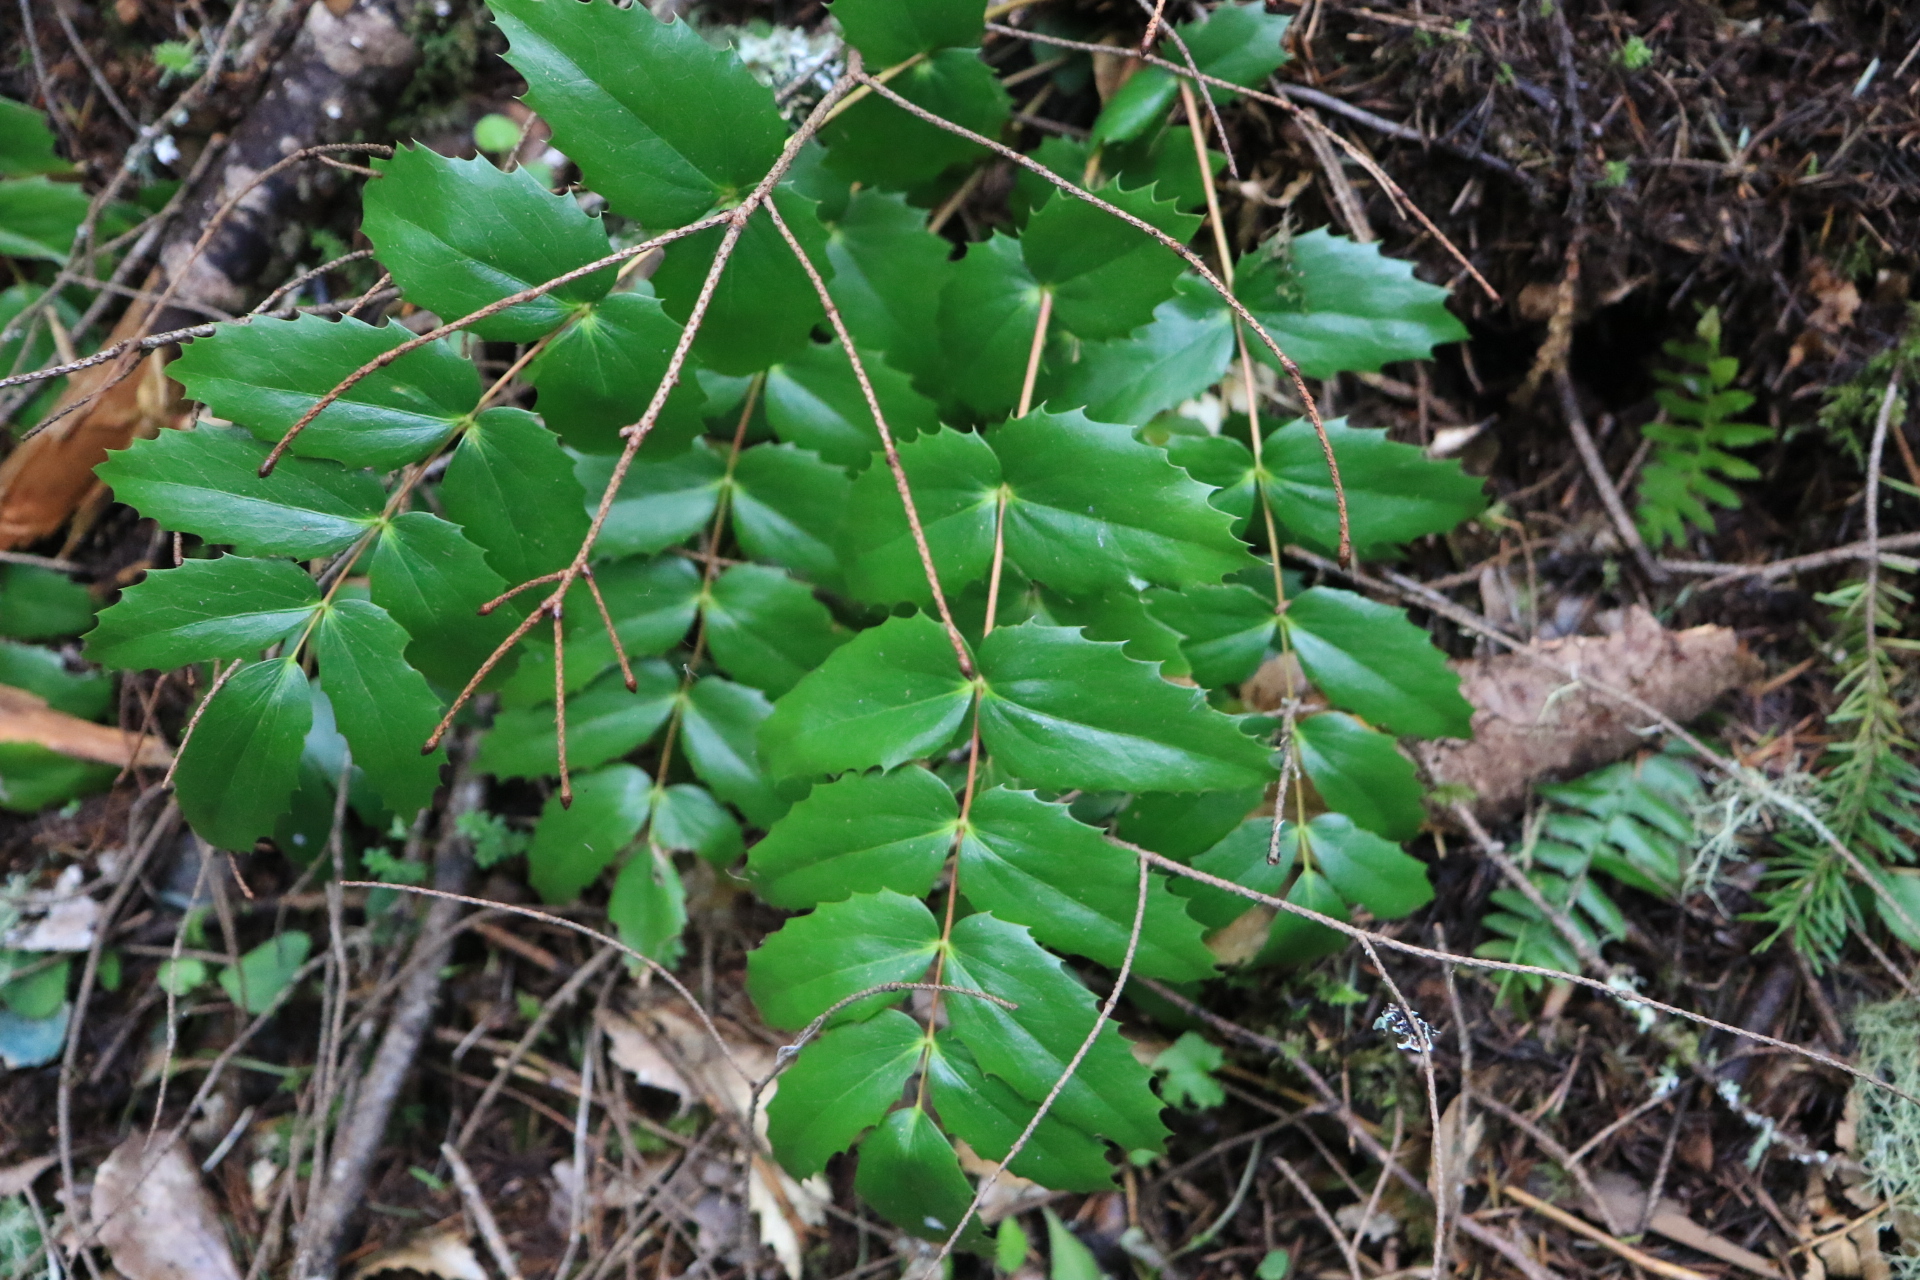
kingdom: Plantae
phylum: Tracheophyta
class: Magnoliopsida
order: Ranunculales
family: Berberidaceae
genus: Mahonia
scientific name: Mahonia nervosa
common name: Cascade oregon-grape
